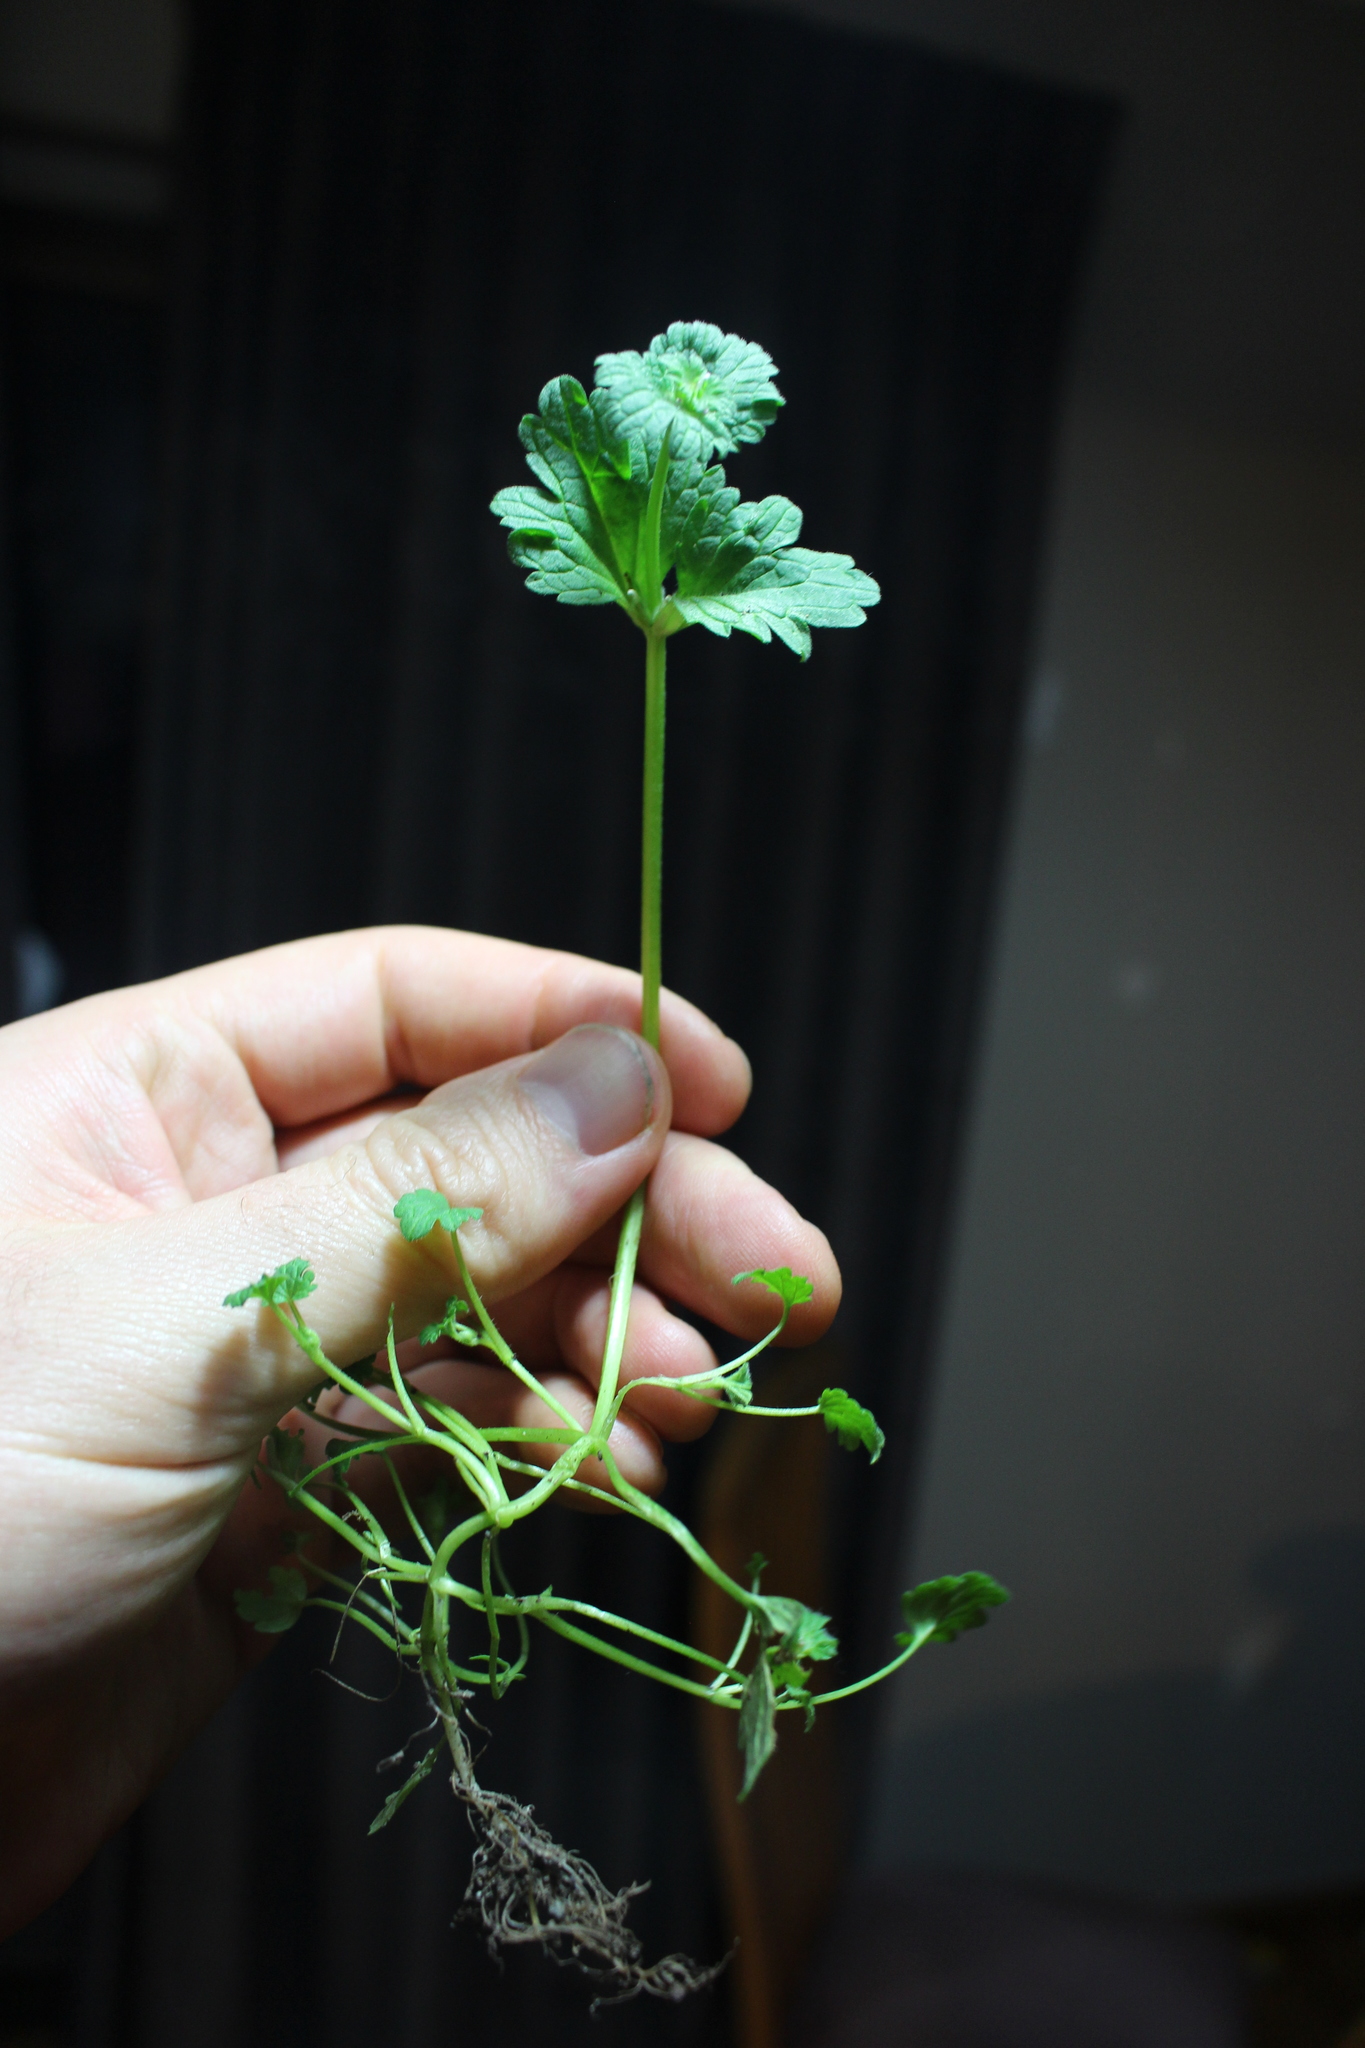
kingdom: Plantae
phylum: Tracheophyta
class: Magnoliopsida
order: Lamiales
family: Lamiaceae
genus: Lamium
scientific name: Lamium amplexicaule
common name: Henbit dead-nettle
